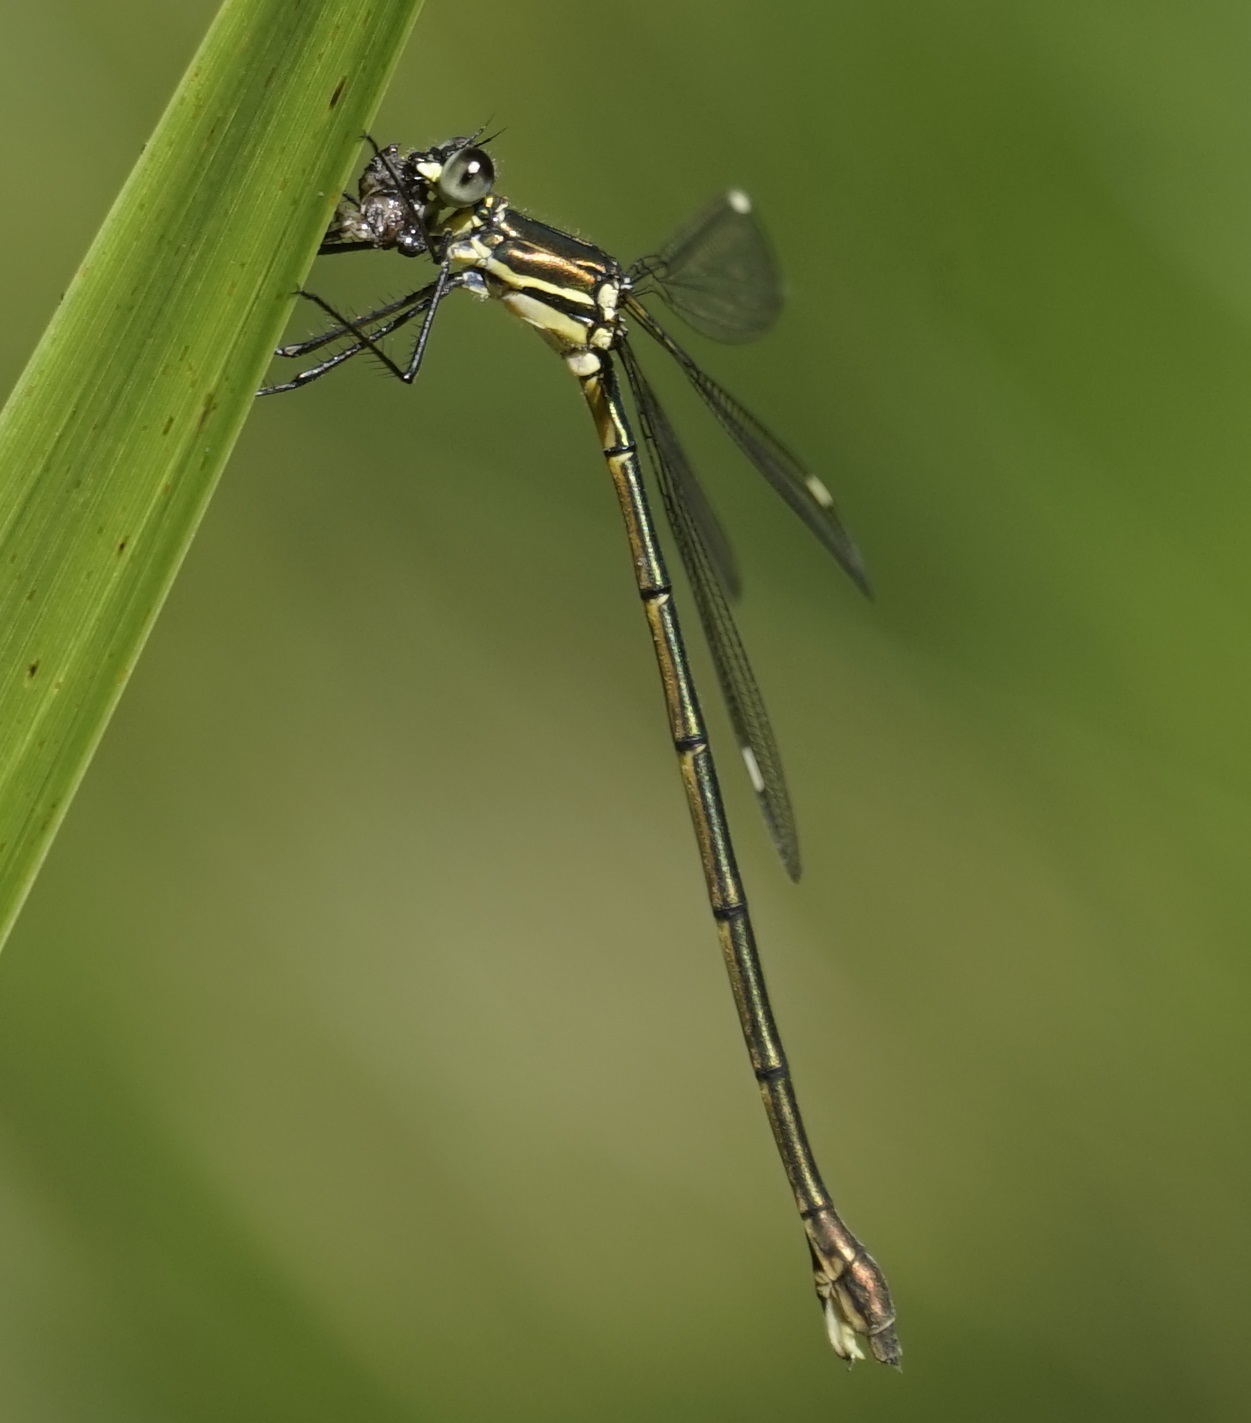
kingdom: Animalia
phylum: Arthropoda
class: Insecta
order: Odonata
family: Synlestidae
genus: Synlestes
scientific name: Synlestes weyersii
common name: Bronze needle
